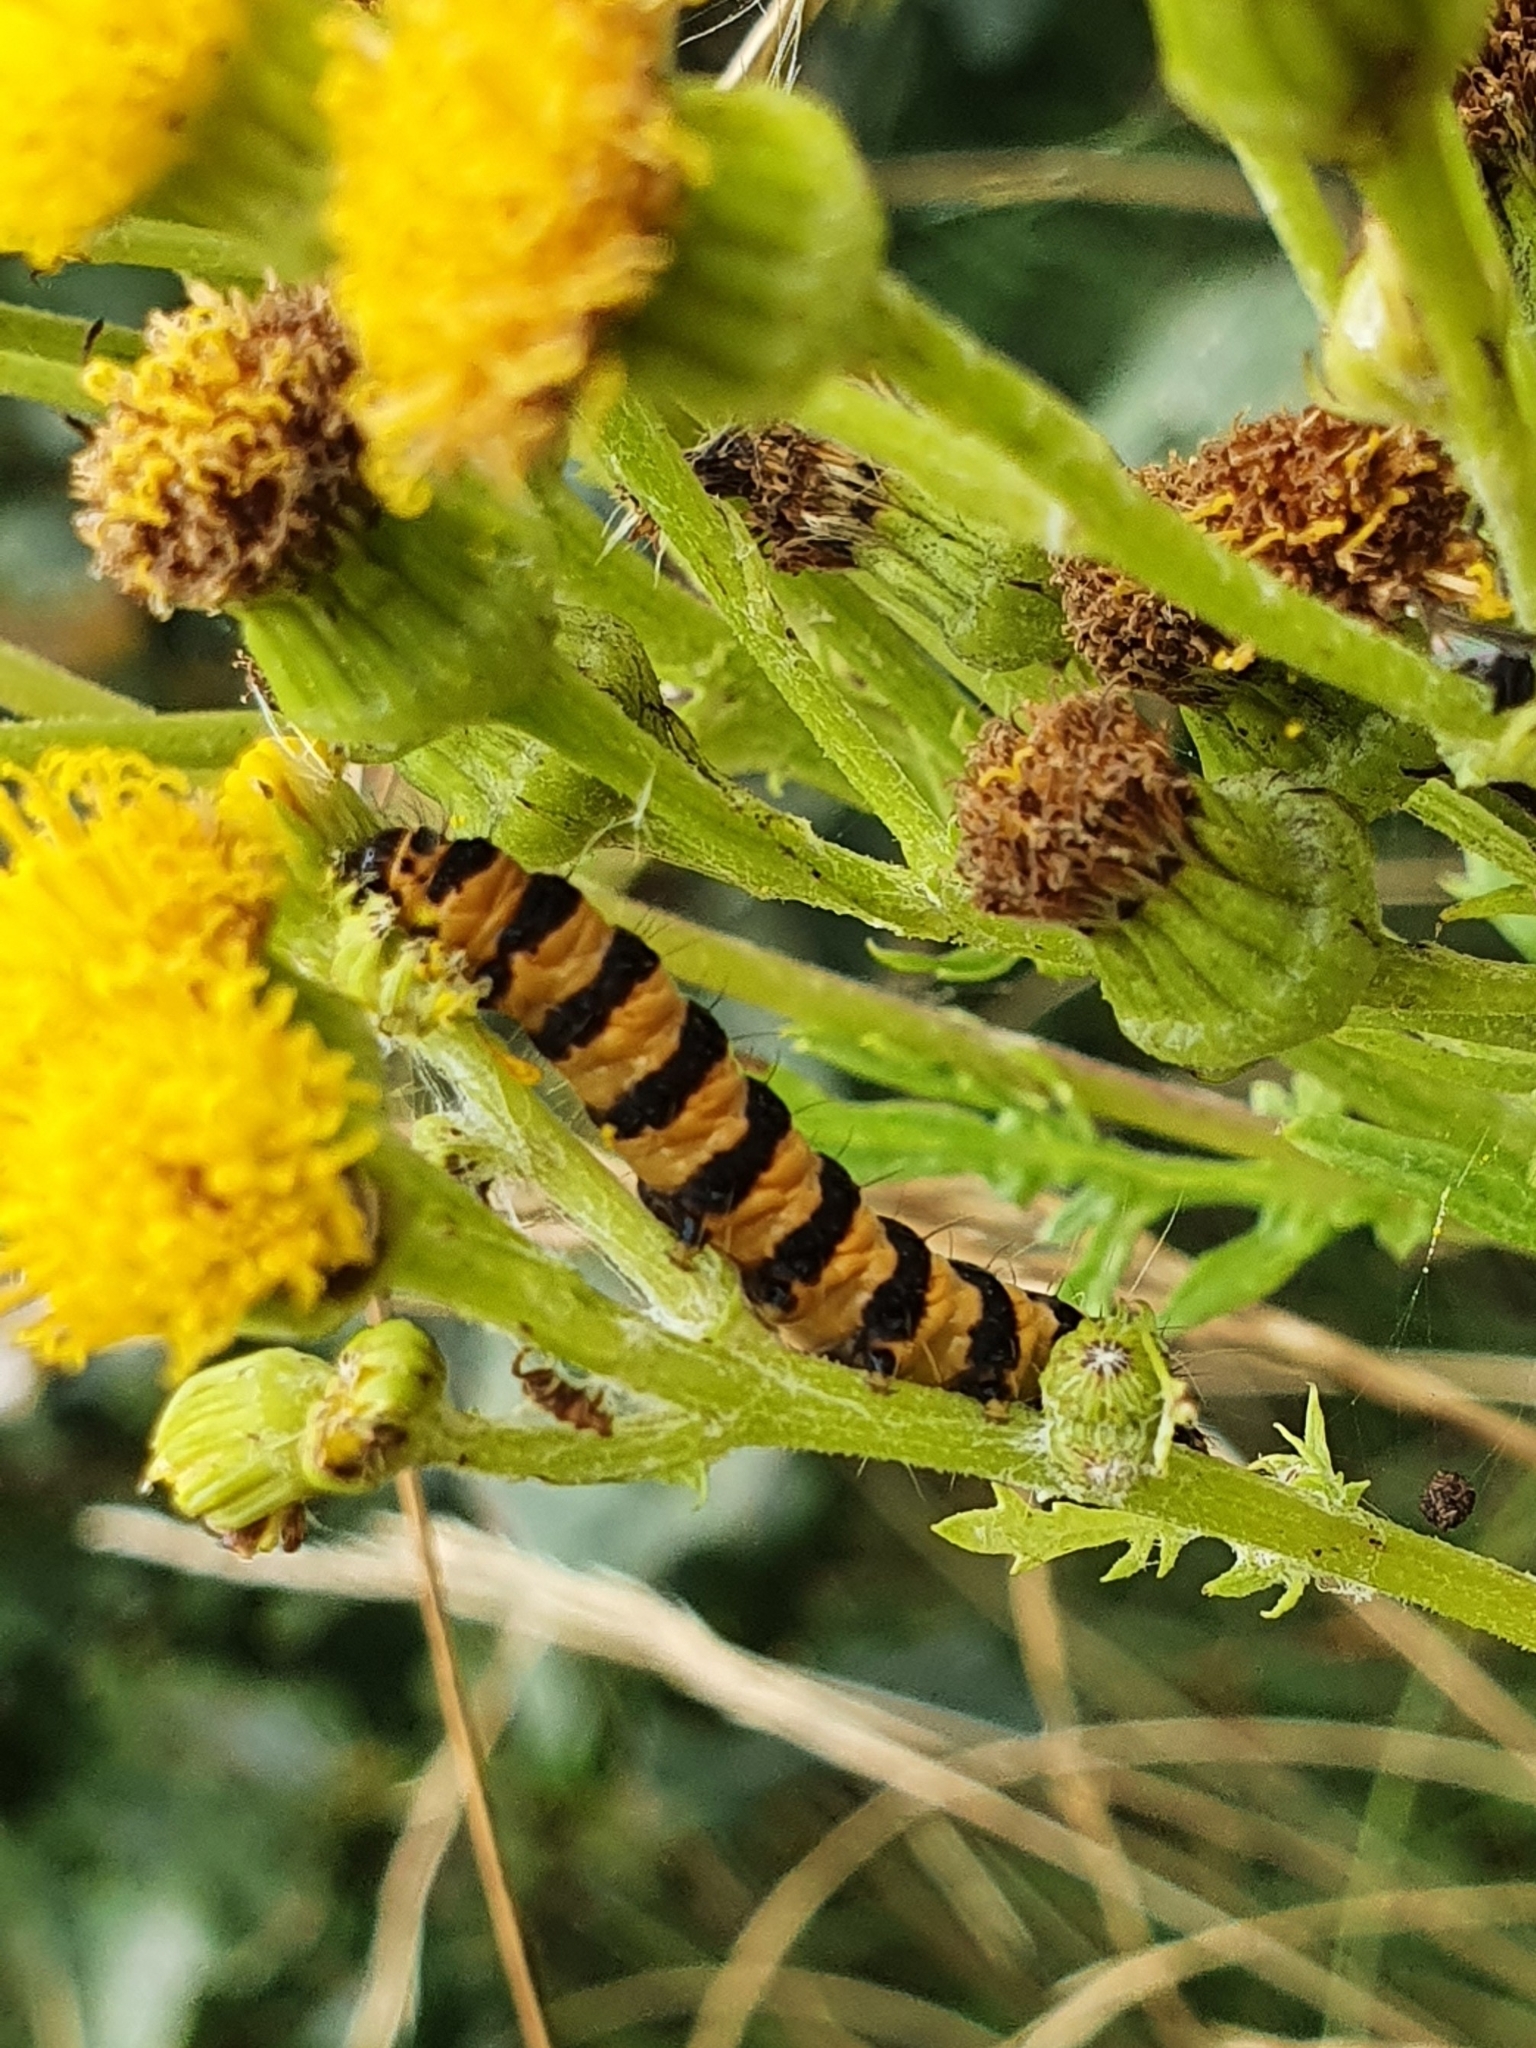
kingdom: Animalia
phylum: Arthropoda
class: Insecta
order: Lepidoptera
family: Erebidae
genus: Tyria
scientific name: Tyria jacobaeae
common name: Cinnabar
